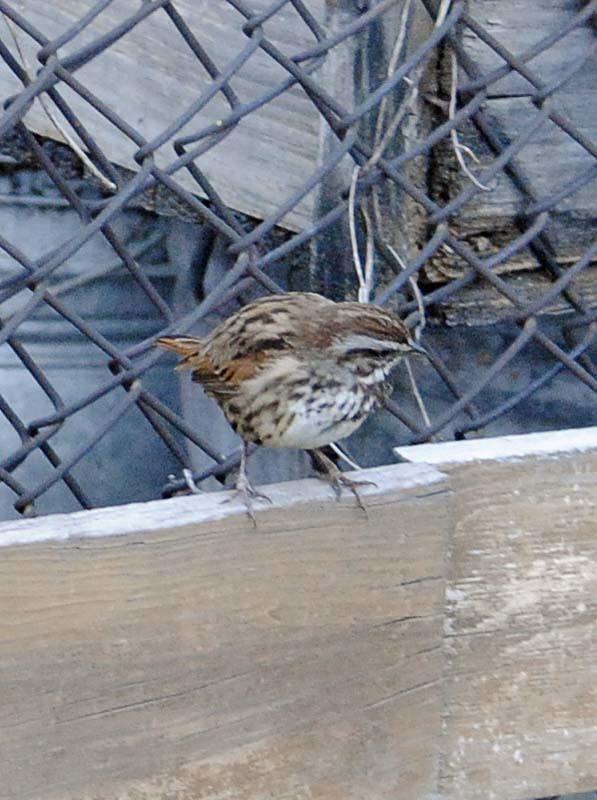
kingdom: Animalia
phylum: Chordata
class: Aves
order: Passeriformes
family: Passerellidae
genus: Melospiza
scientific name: Melospiza melodia
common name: Song sparrow
